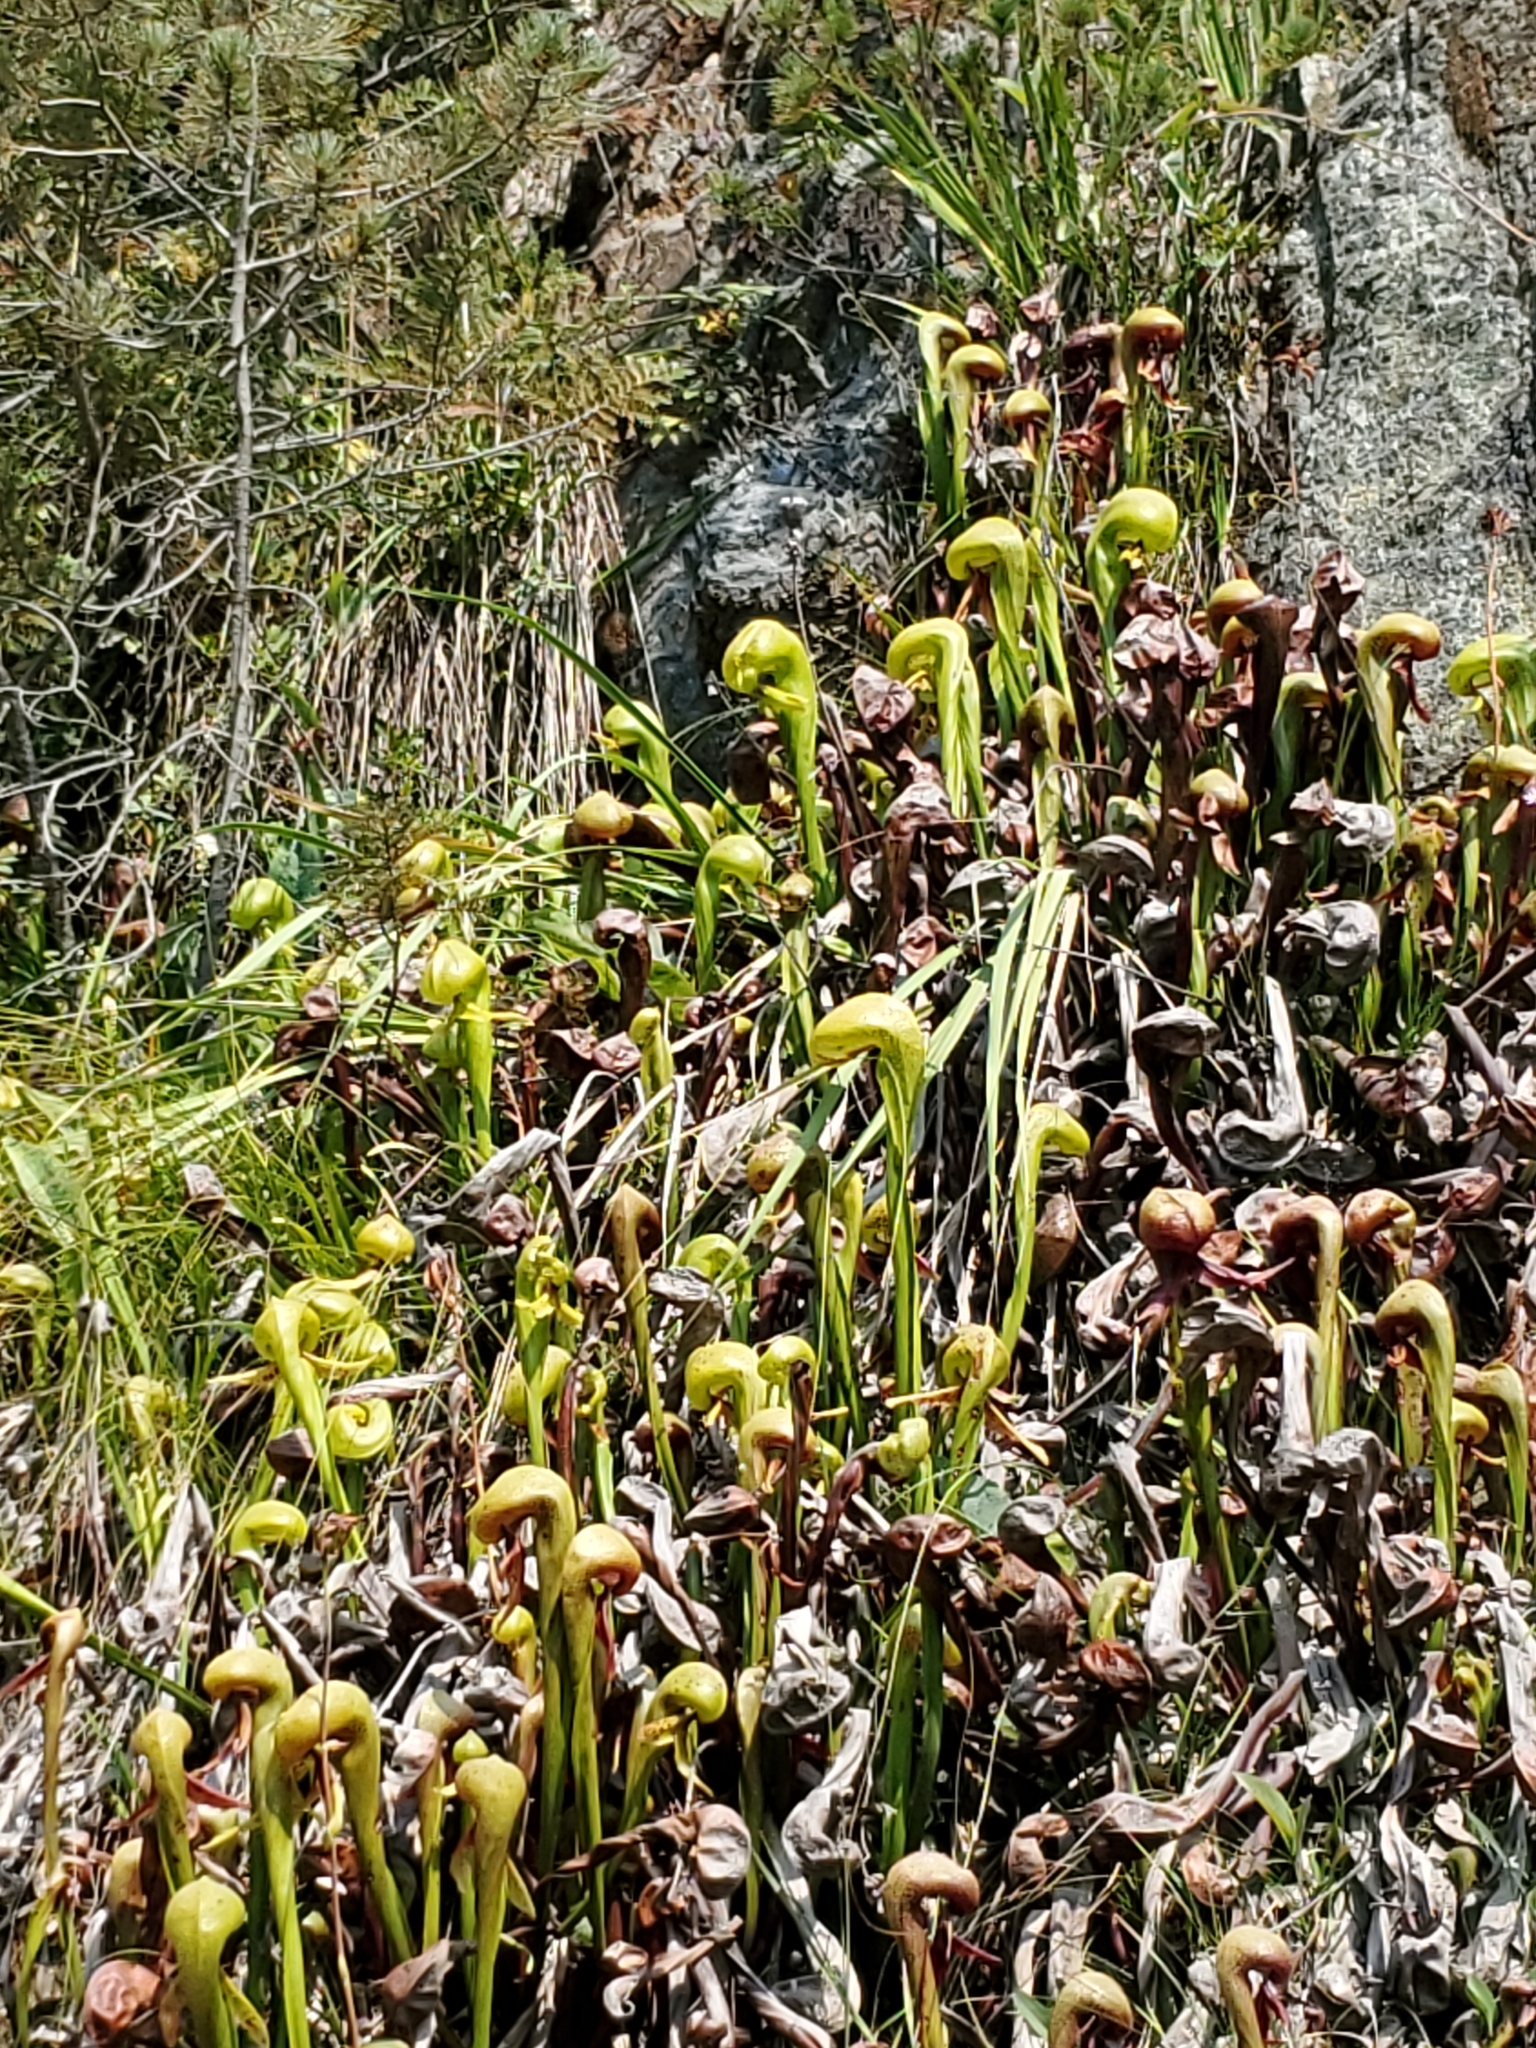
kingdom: Plantae
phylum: Tracheophyta
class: Magnoliopsida
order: Ericales
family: Sarraceniaceae
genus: Darlingtonia
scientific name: Darlingtonia californica
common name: California pitcher plant
